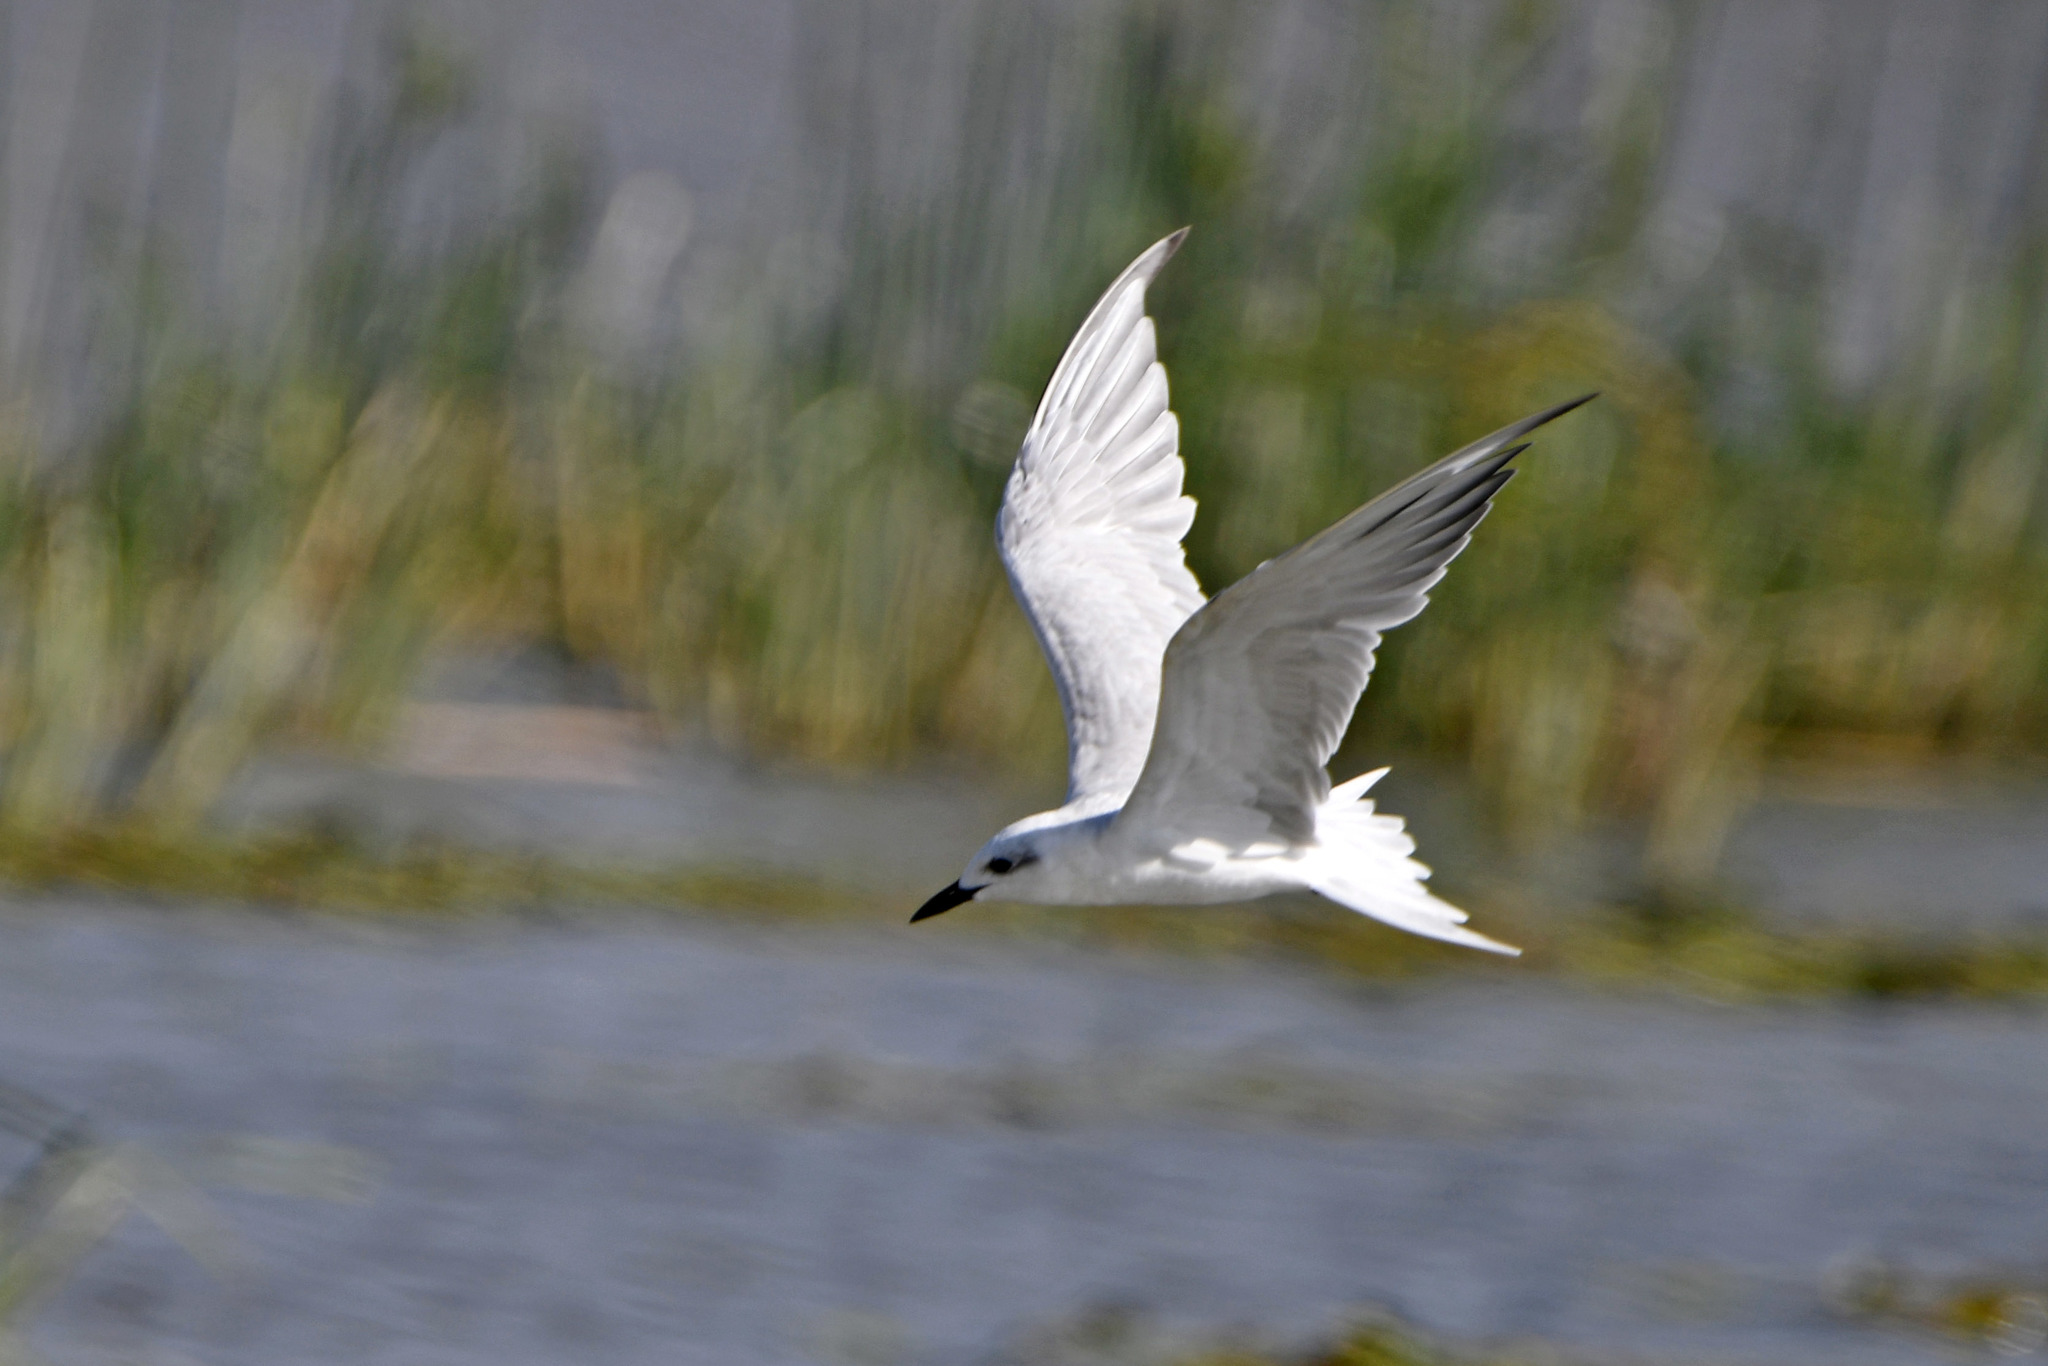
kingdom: Animalia
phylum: Chordata
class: Aves
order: Charadriiformes
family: Laridae
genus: Gelochelidon
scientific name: Gelochelidon nilotica
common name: Gull-billed tern
